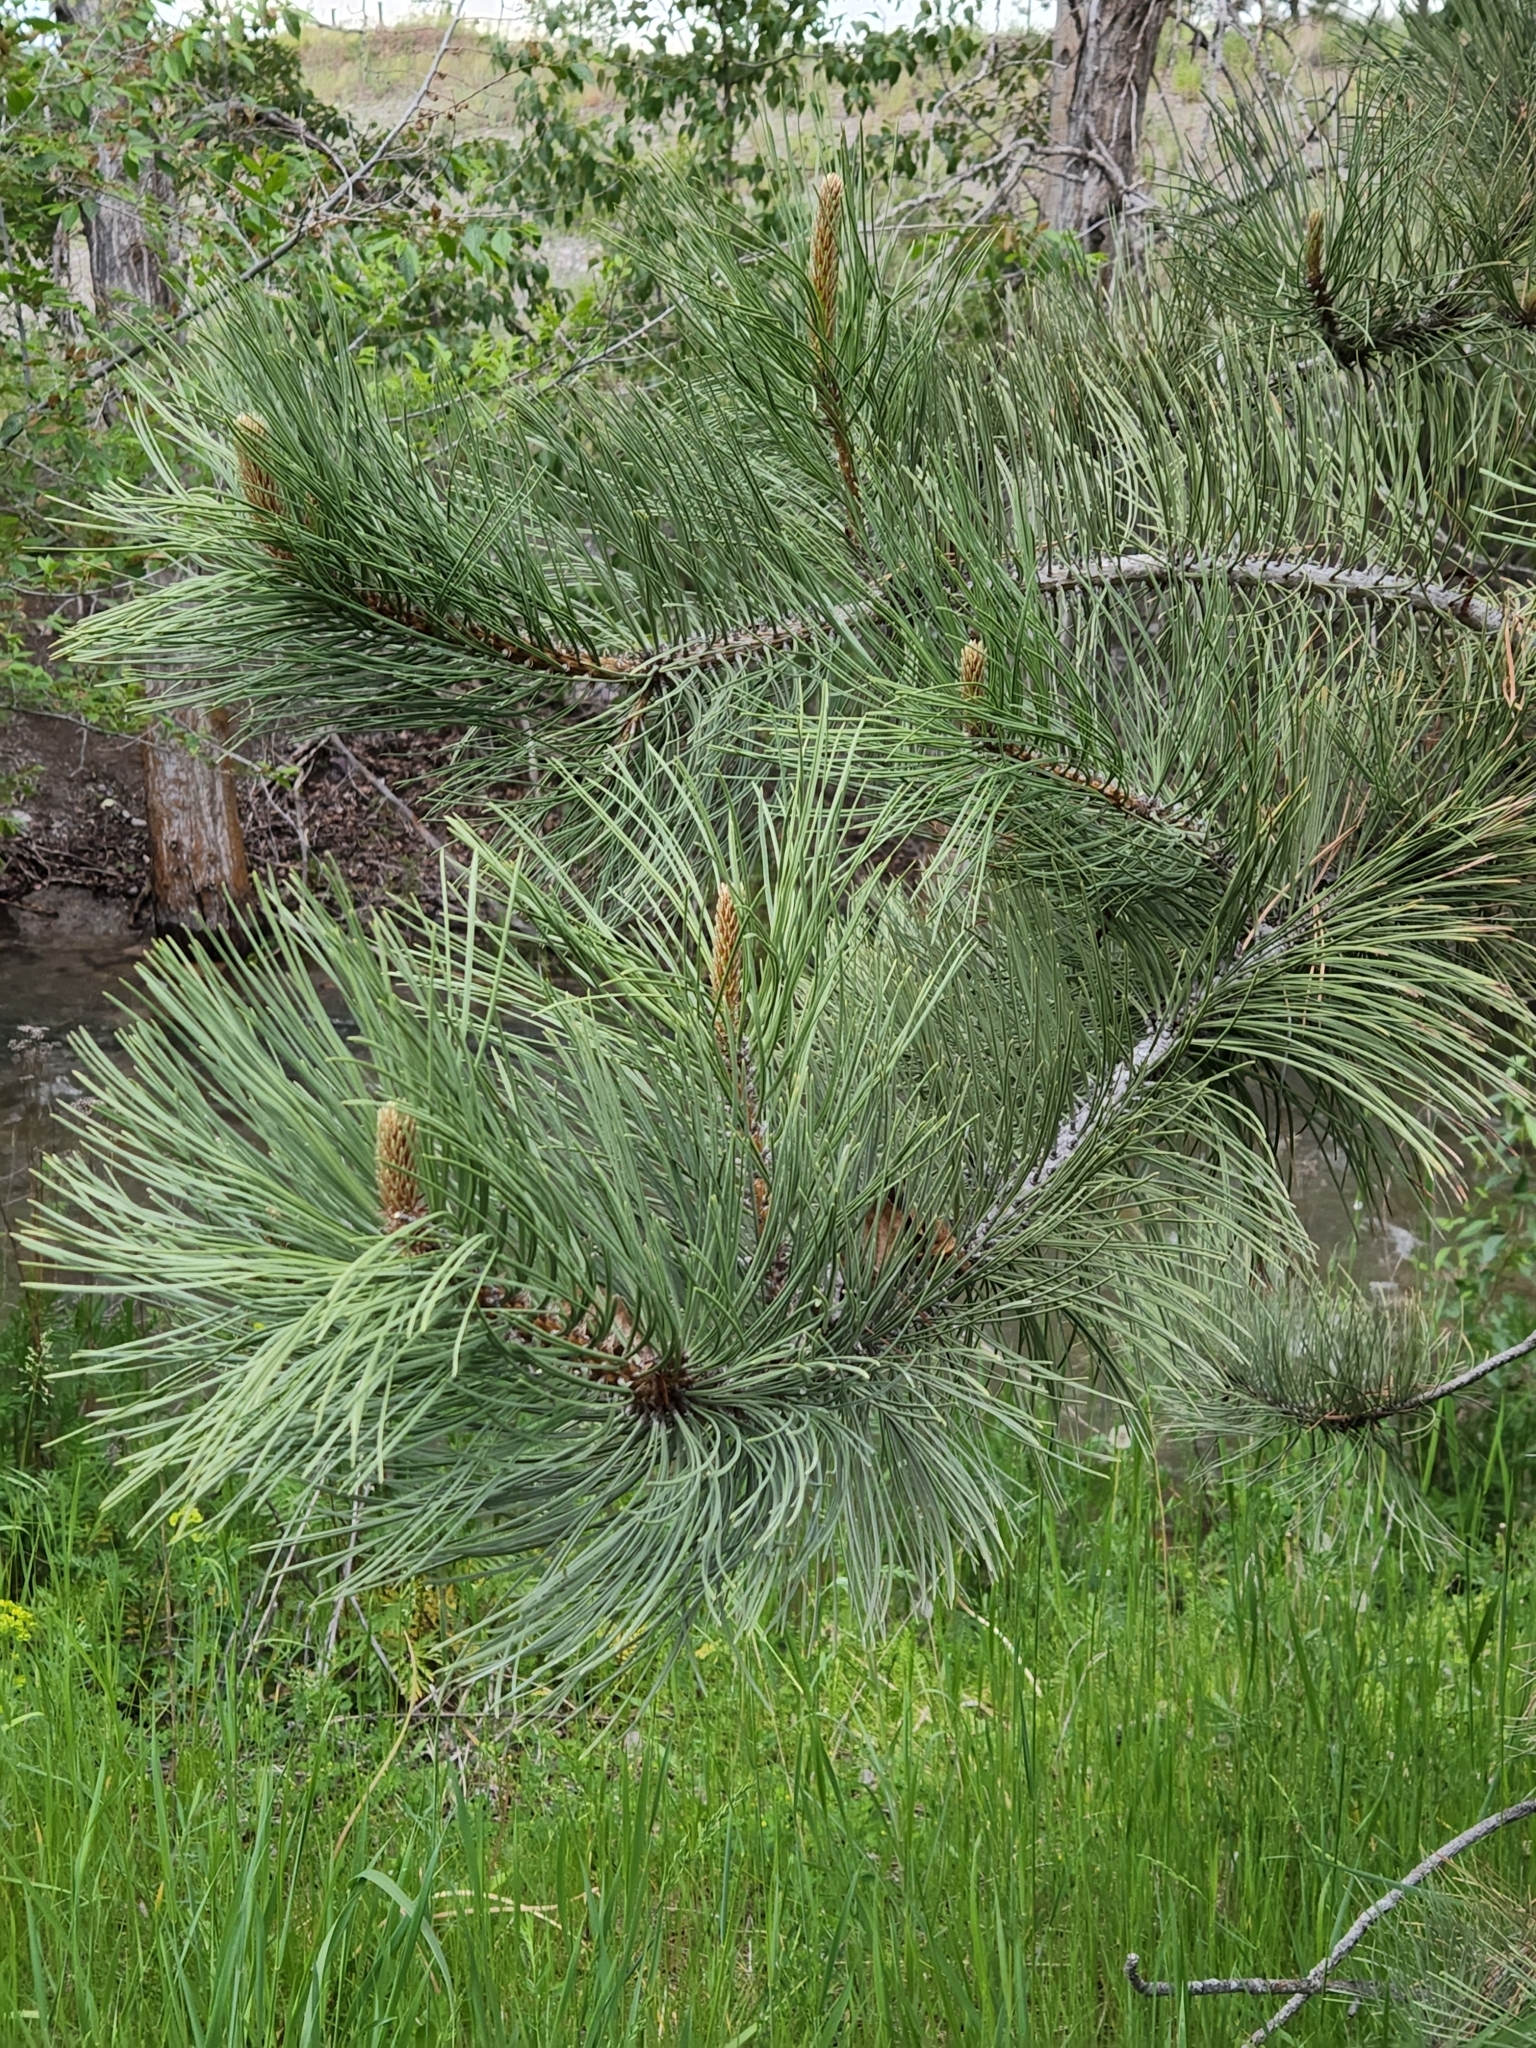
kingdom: Plantae
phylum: Tracheophyta
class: Pinopsida
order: Pinales
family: Pinaceae
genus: Pinus
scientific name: Pinus ponderosa
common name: Western yellow-pine
